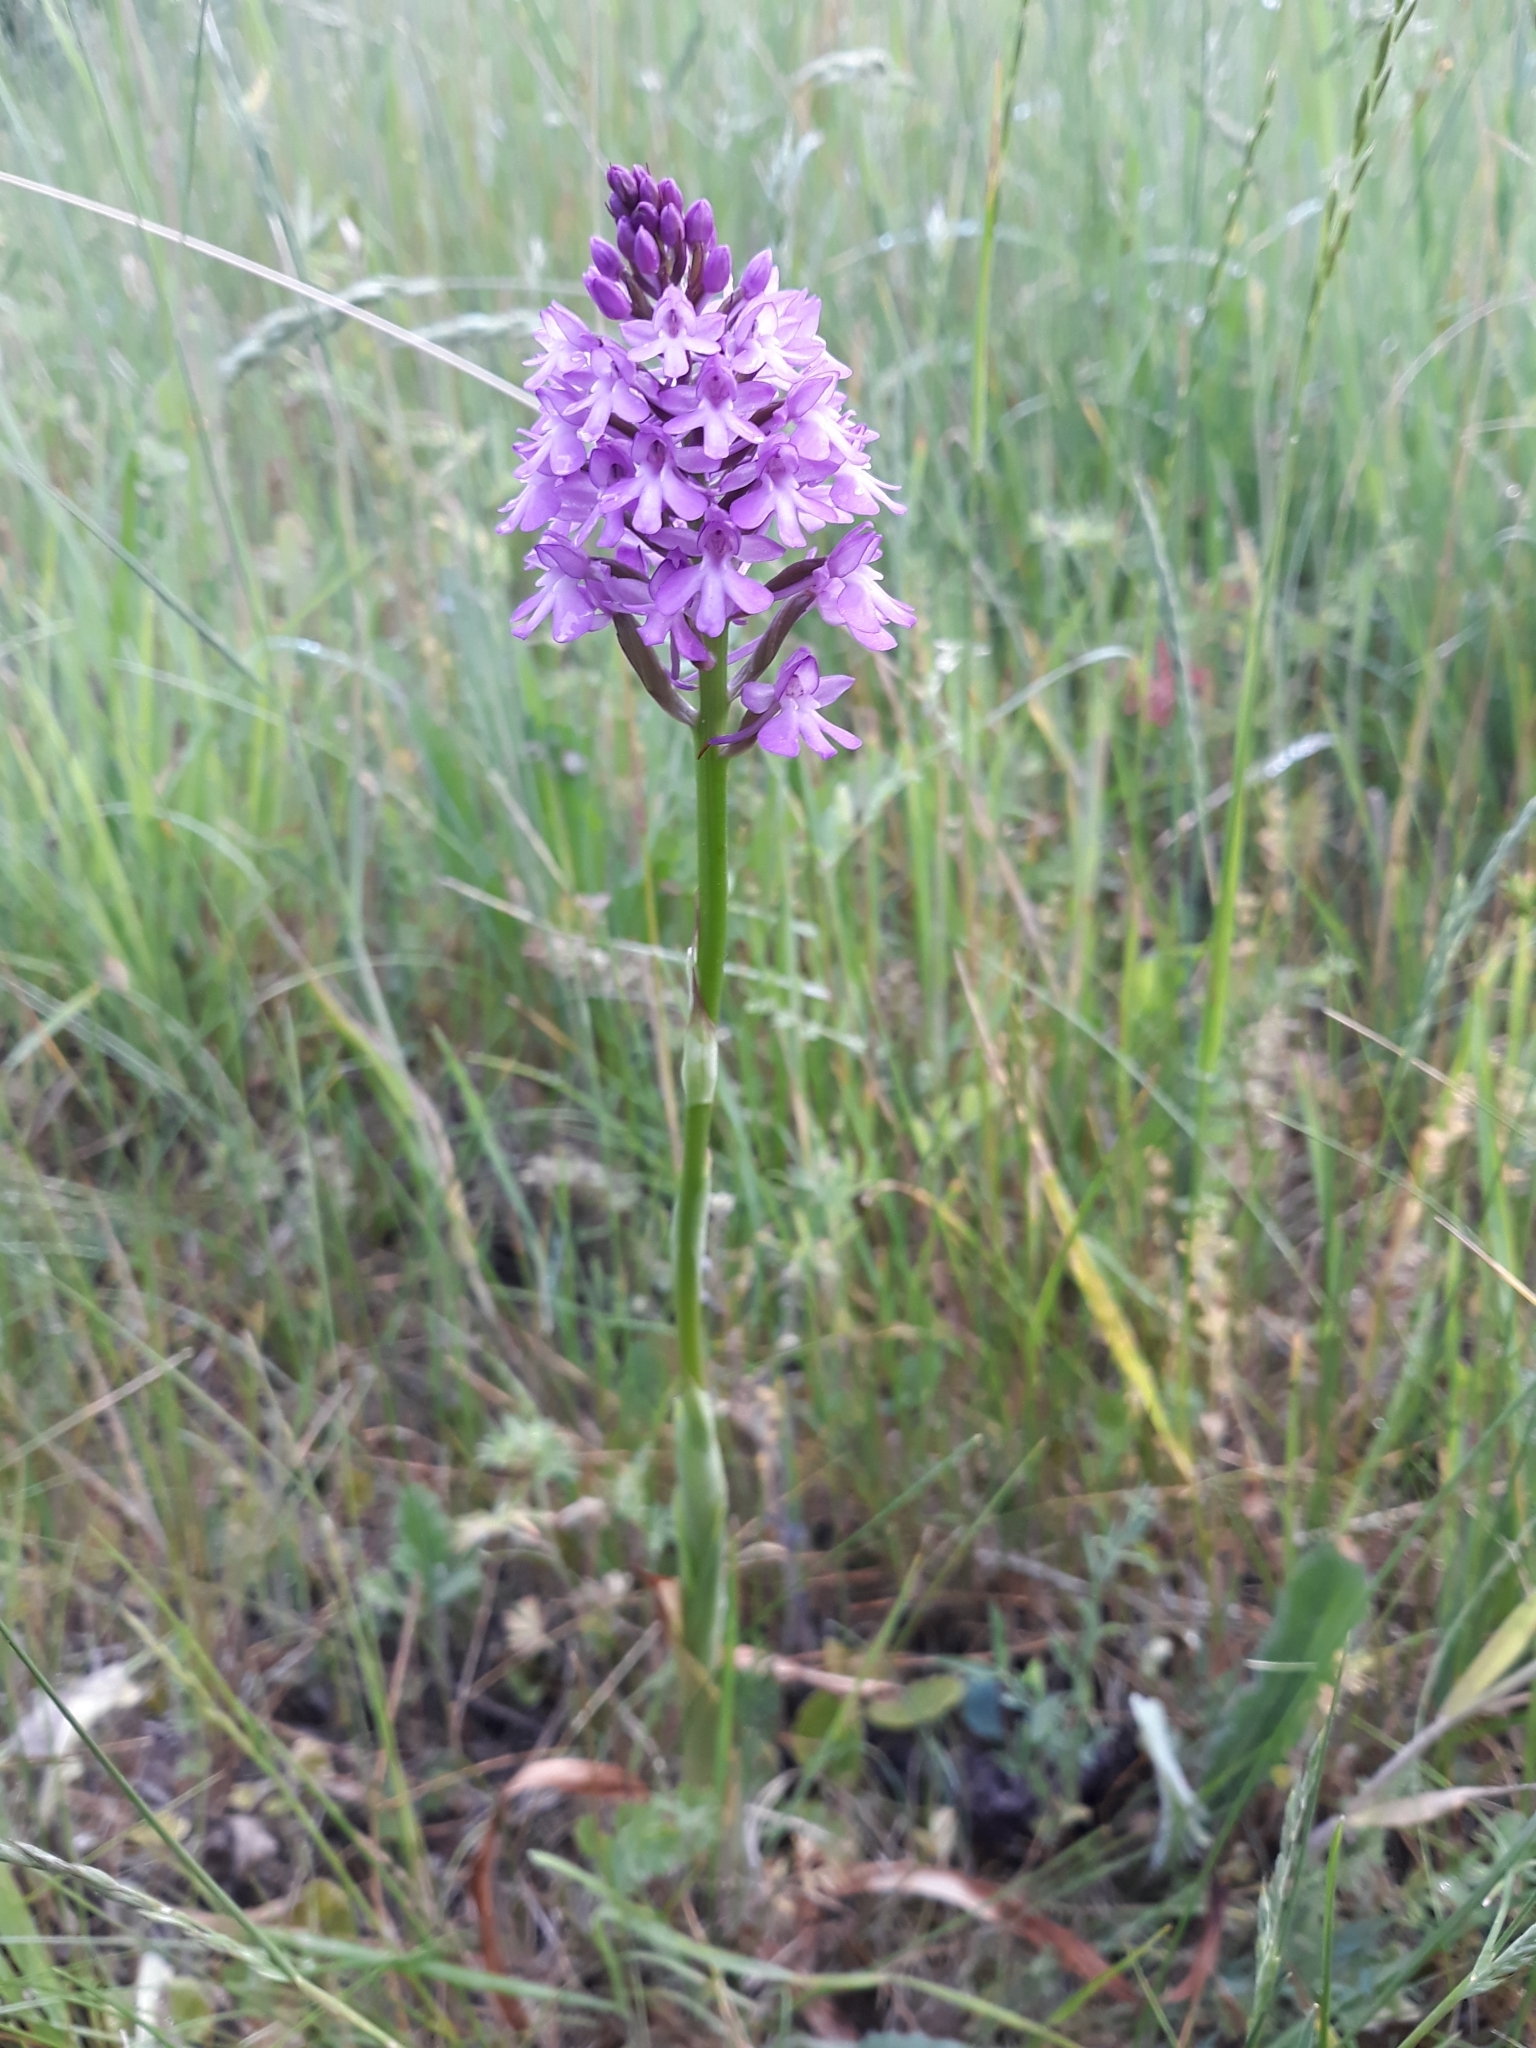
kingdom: Plantae
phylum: Tracheophyta
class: Liliopsida
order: Asparagales
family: Orchidaceae
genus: Anacamptis
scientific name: Anacamptis pyramidalis
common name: Pyramidal orchid
